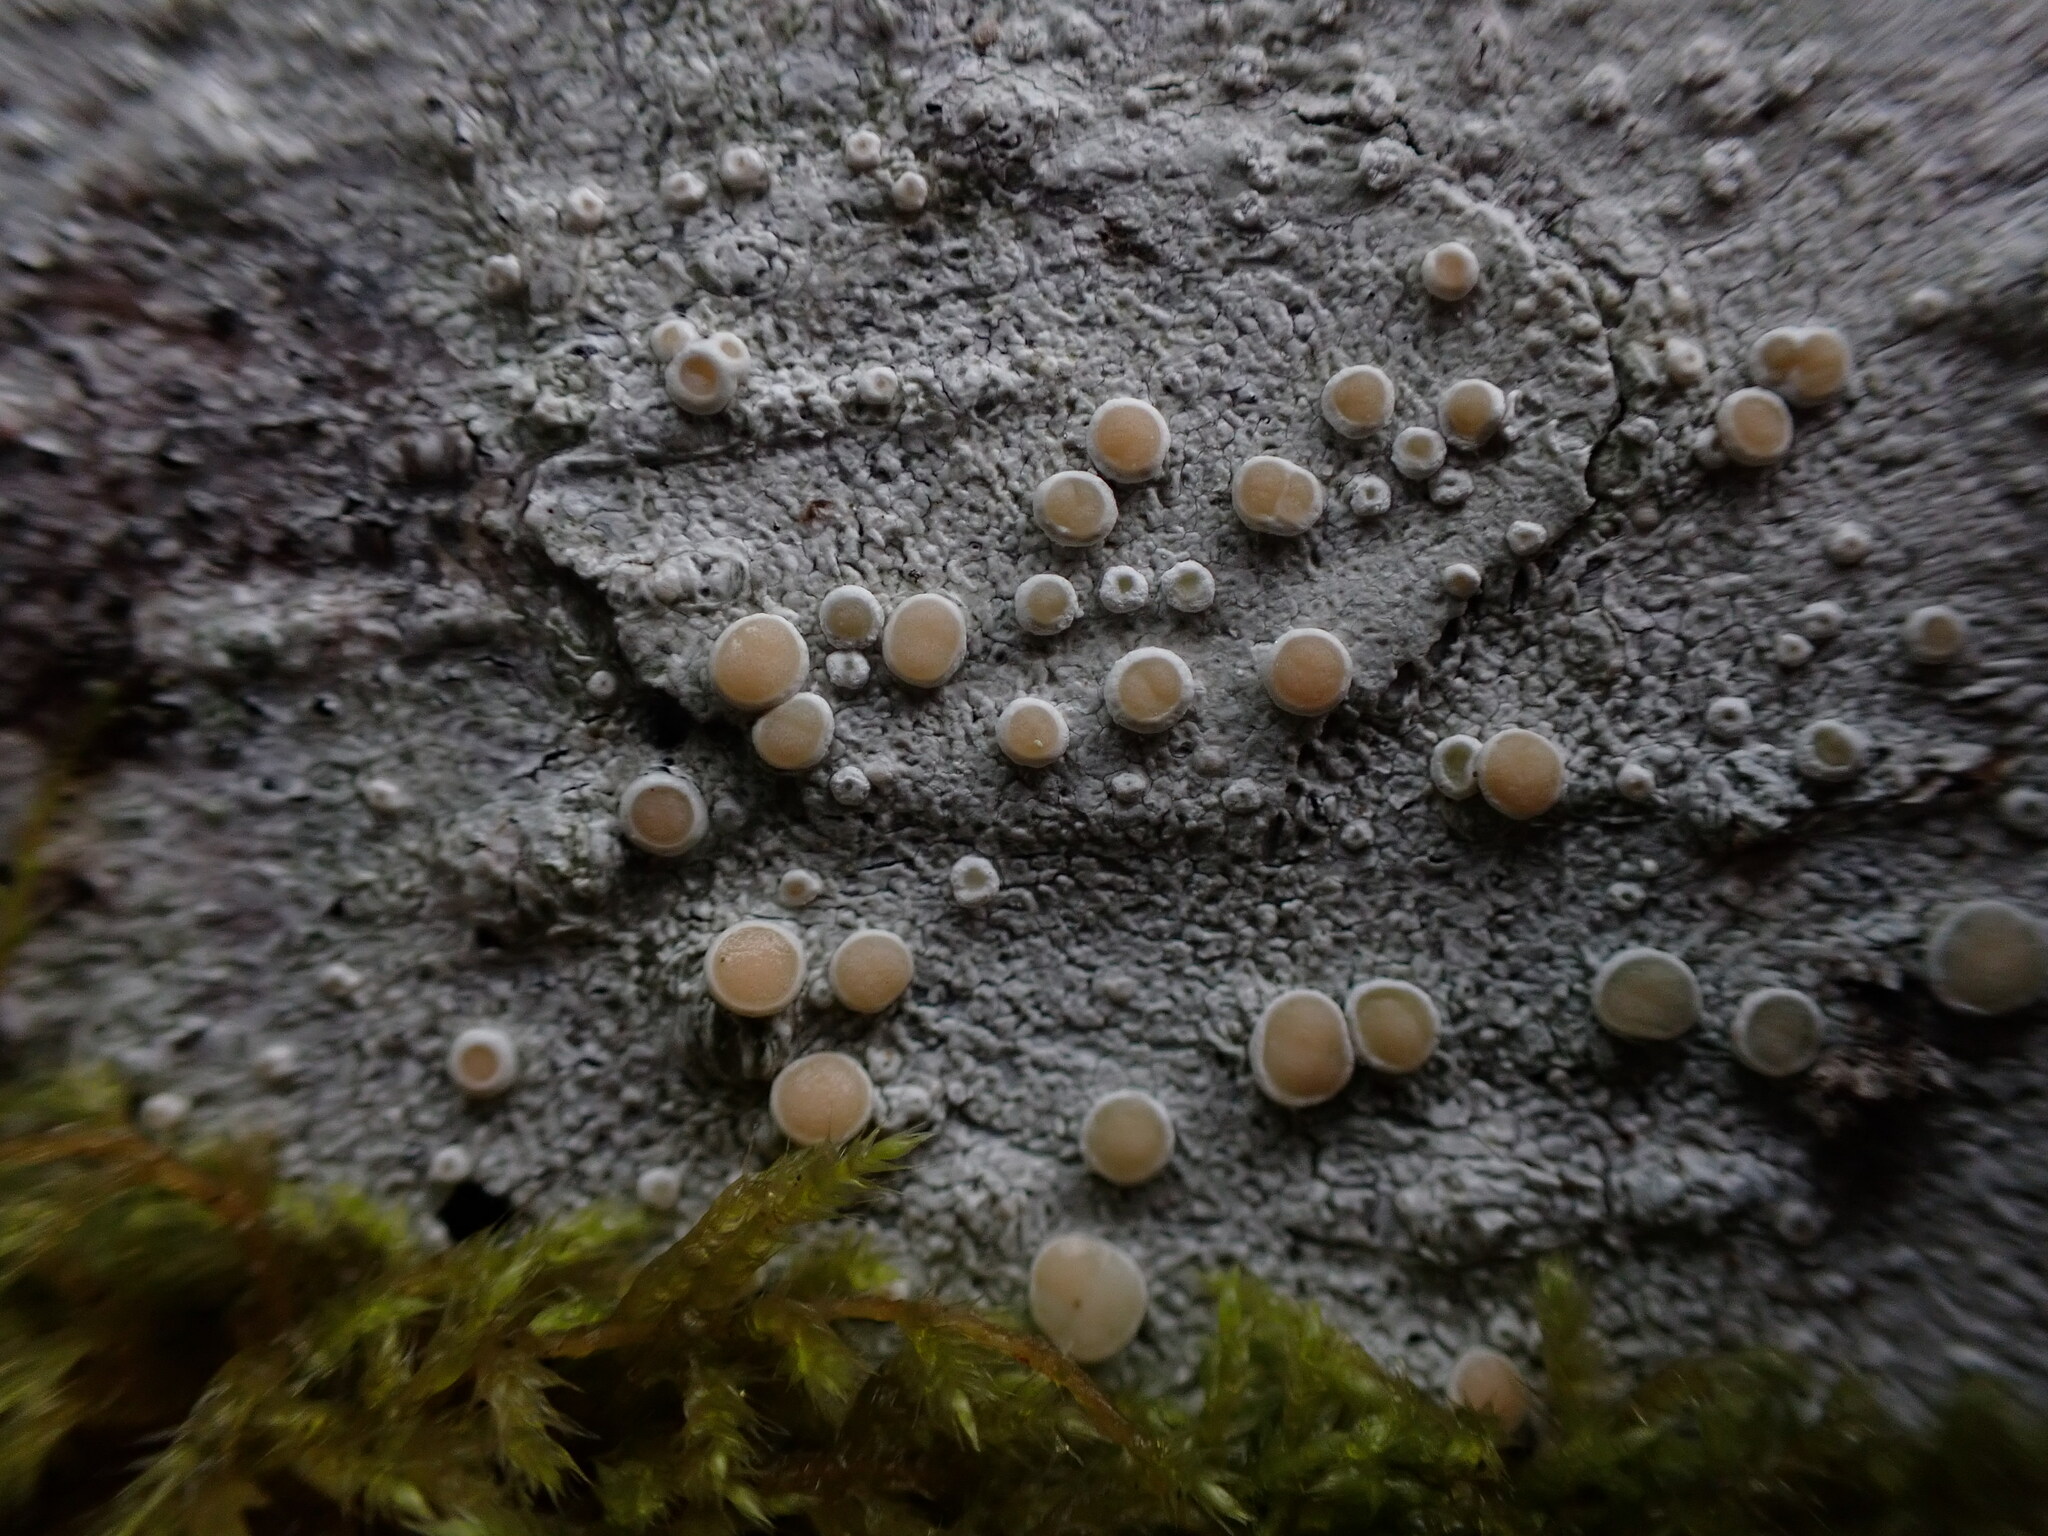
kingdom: Fungi
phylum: Ascomycota
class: Lecanoromycetes
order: Pertusariales
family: Ochrolechiaceae
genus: Ochrolechia
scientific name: Ochrolechia laevigata
